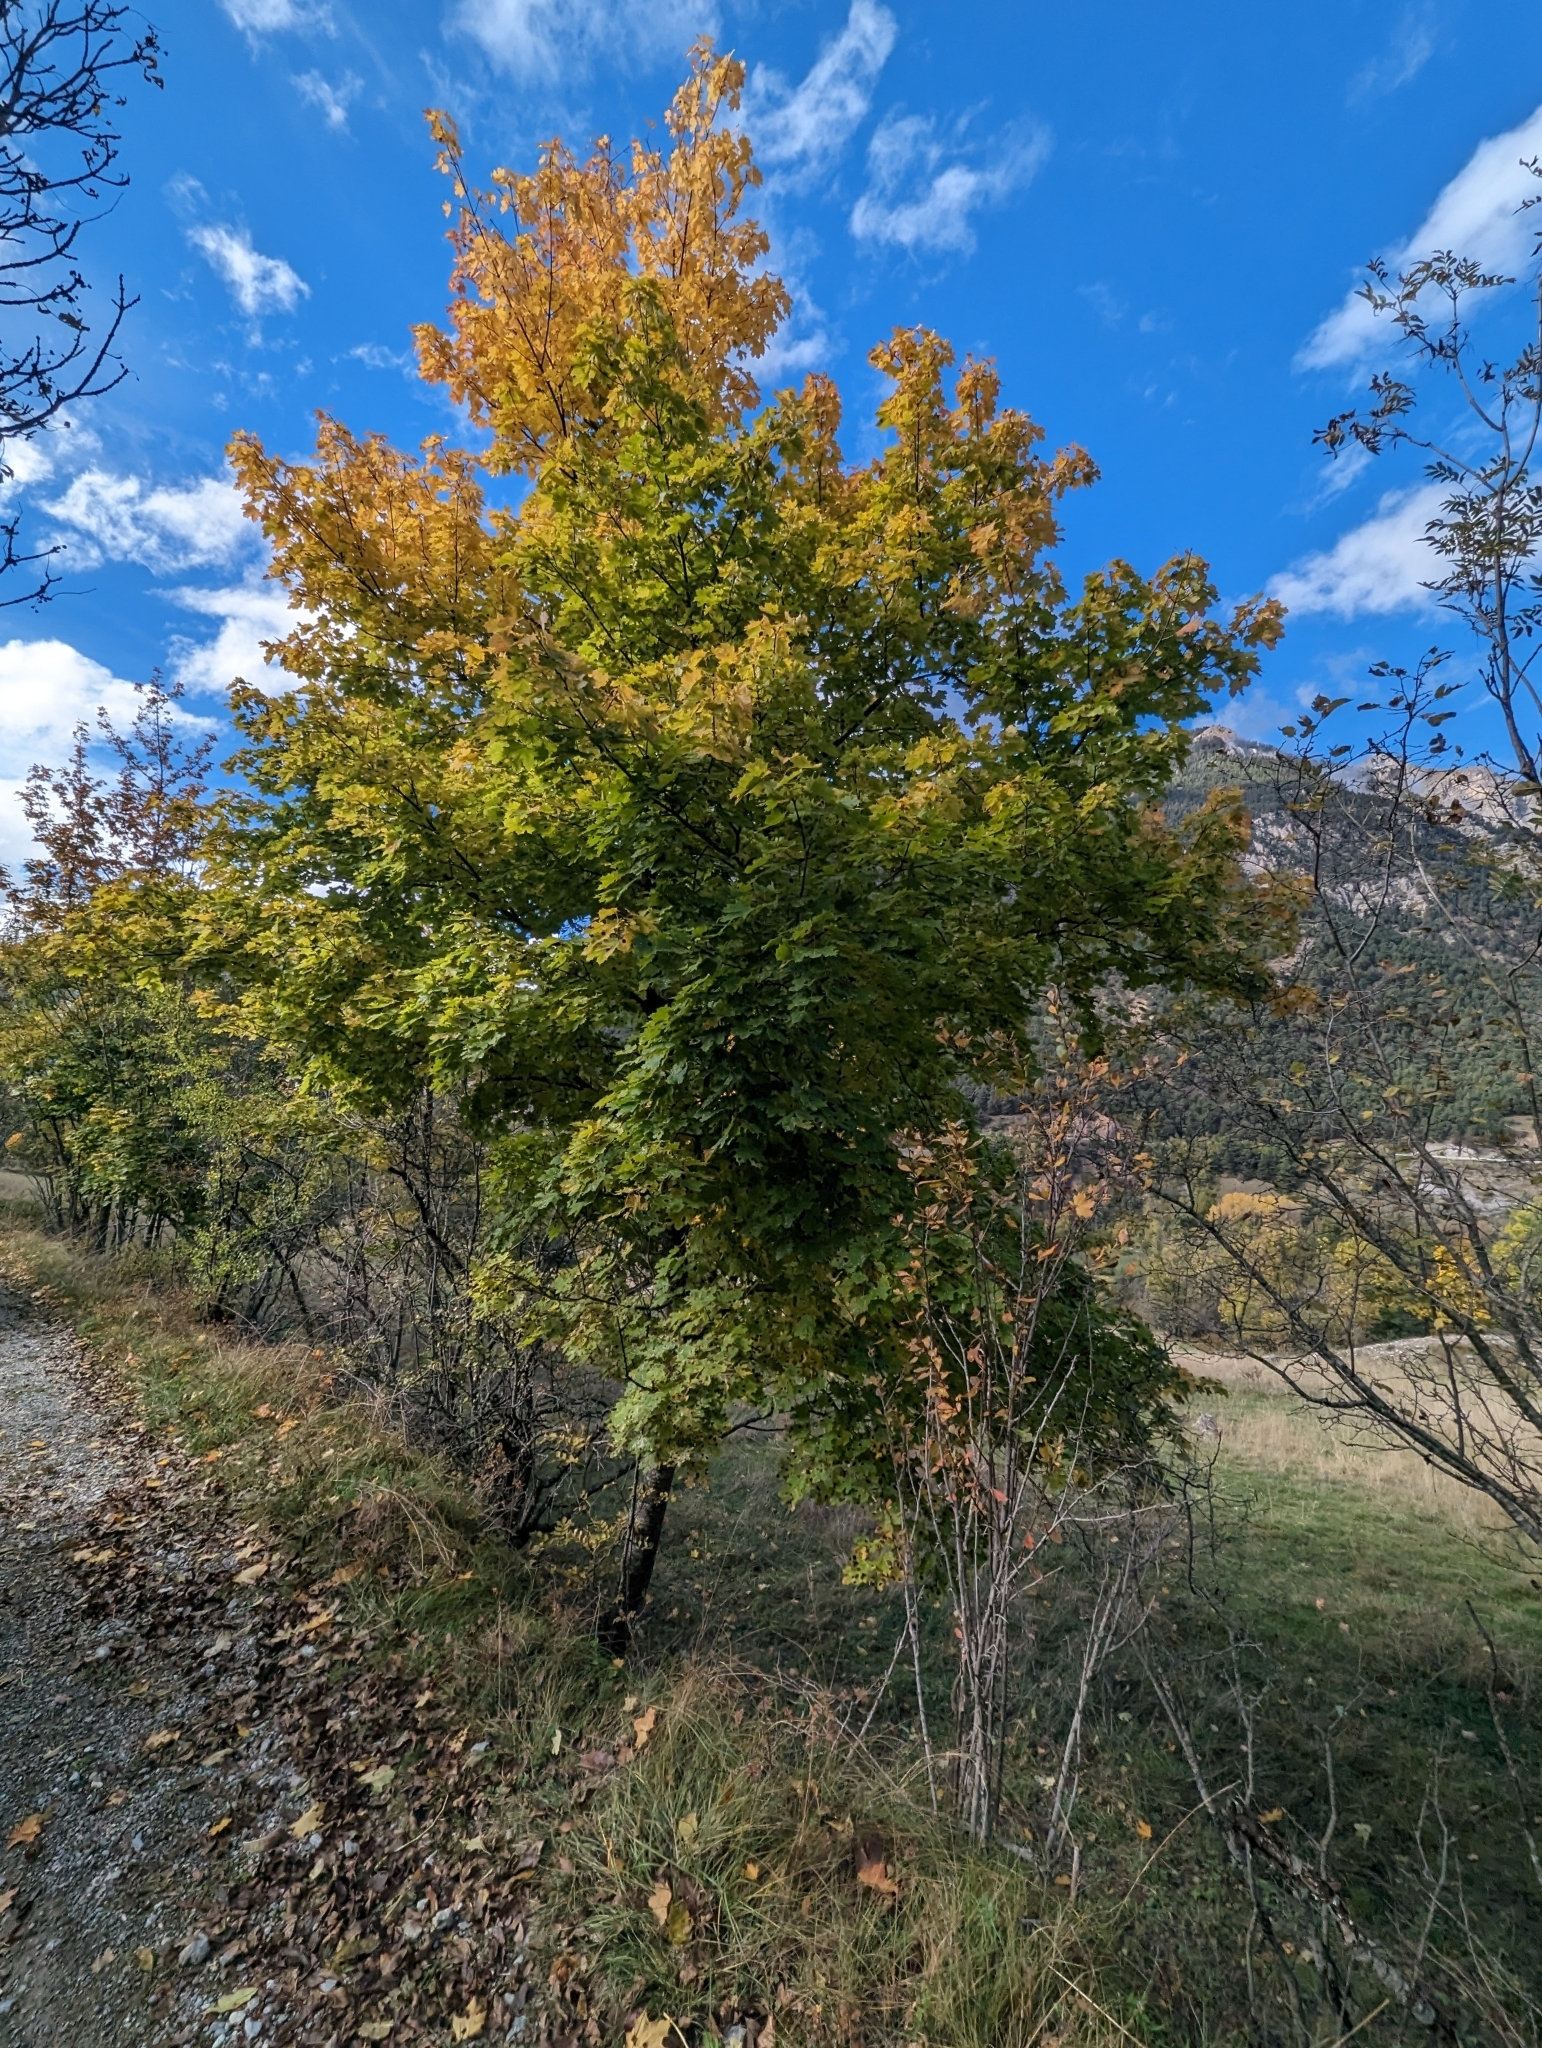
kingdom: Plantae
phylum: Tracheophyta
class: Magnoliopsida
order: Sapindales
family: Sapindaceae
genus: Acer
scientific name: Acer platanoides
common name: Norway maple
